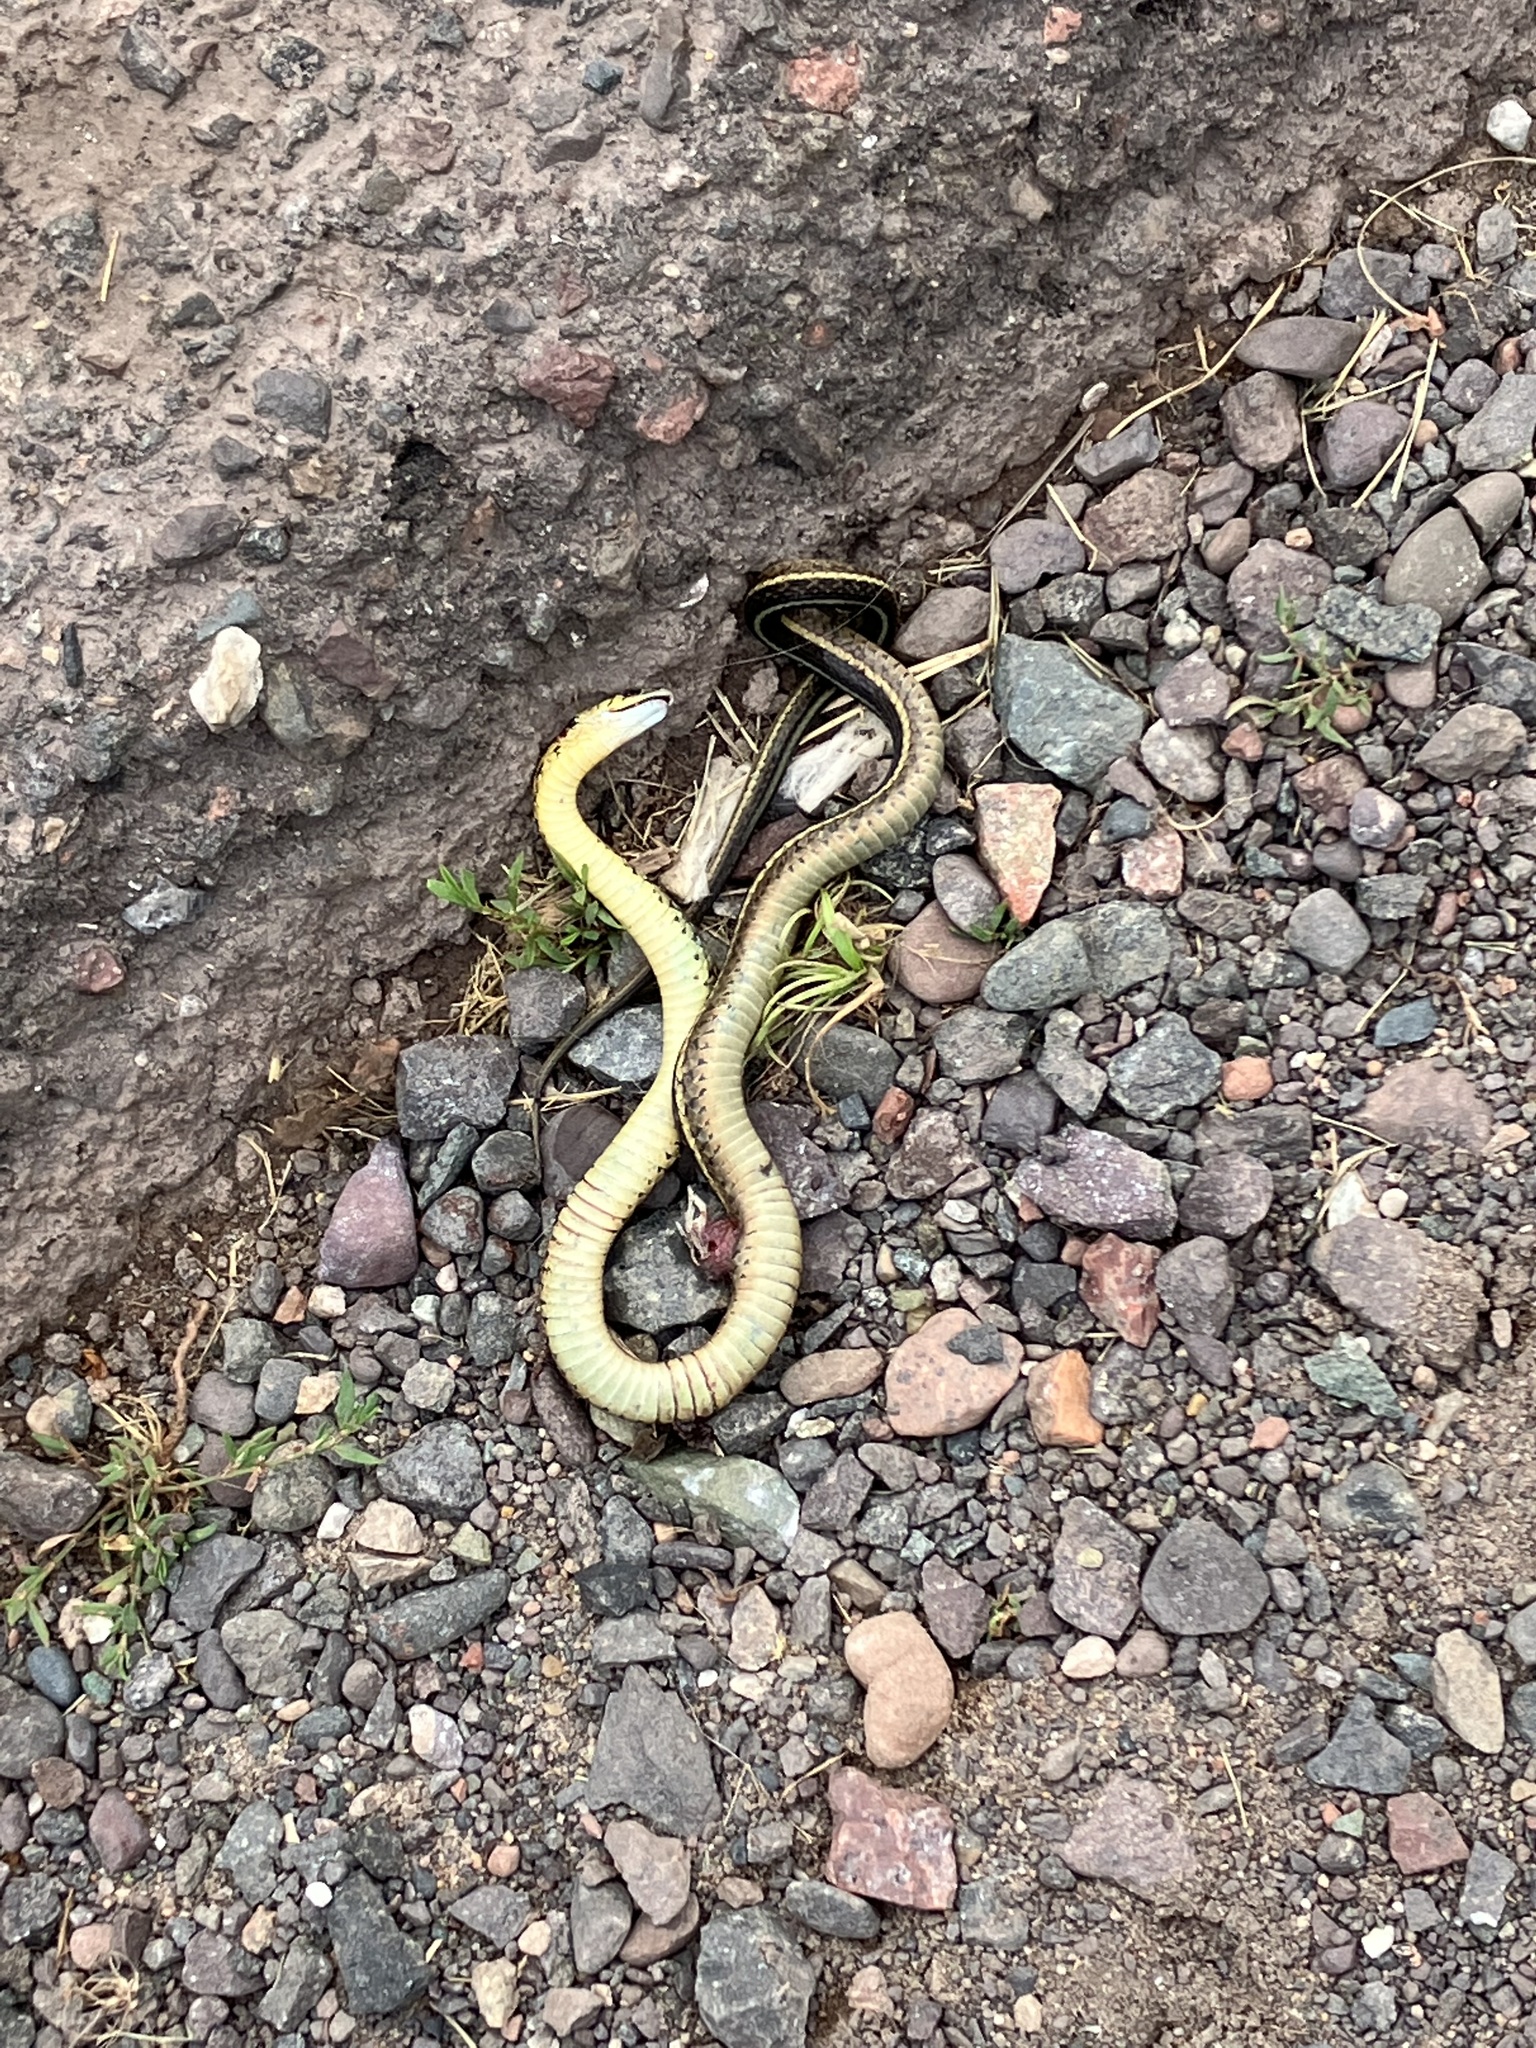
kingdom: Animalia
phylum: Chordata
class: Squamata
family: Colubridae
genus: Thamnophis
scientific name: Thamnophis sirtalis
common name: Common garter snake
